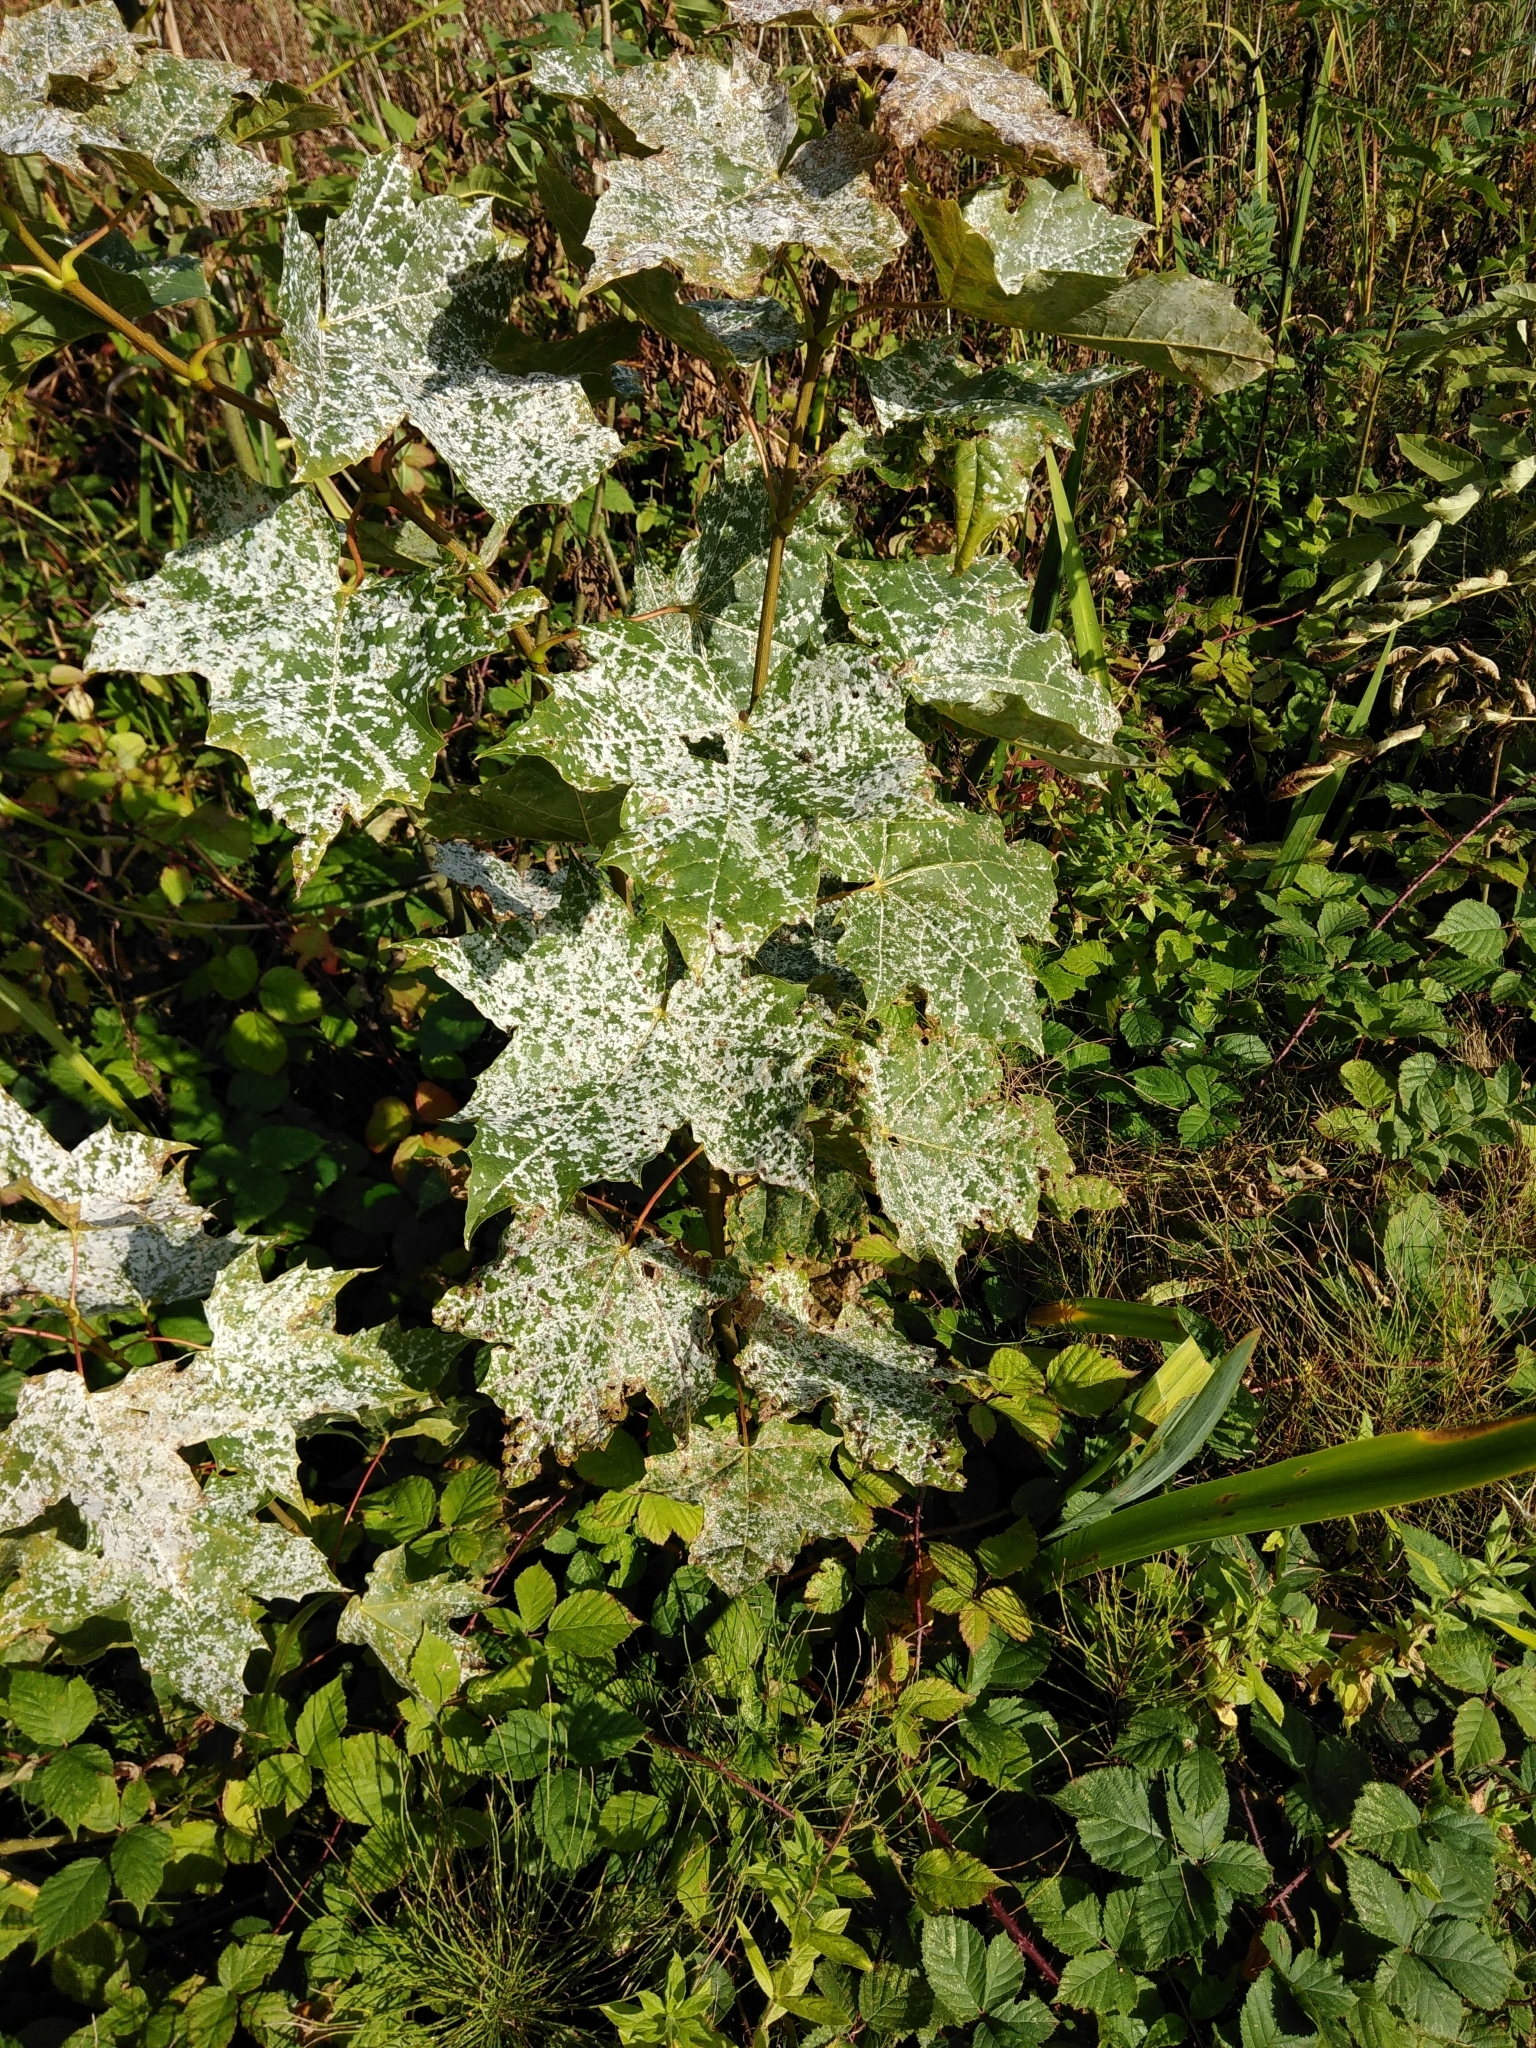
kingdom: Fungi
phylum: Ascomycota
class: Leotiomycetes
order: Helotiales
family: Erysiphaceae
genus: Sawadaea
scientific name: Sawadaea tulasnei
